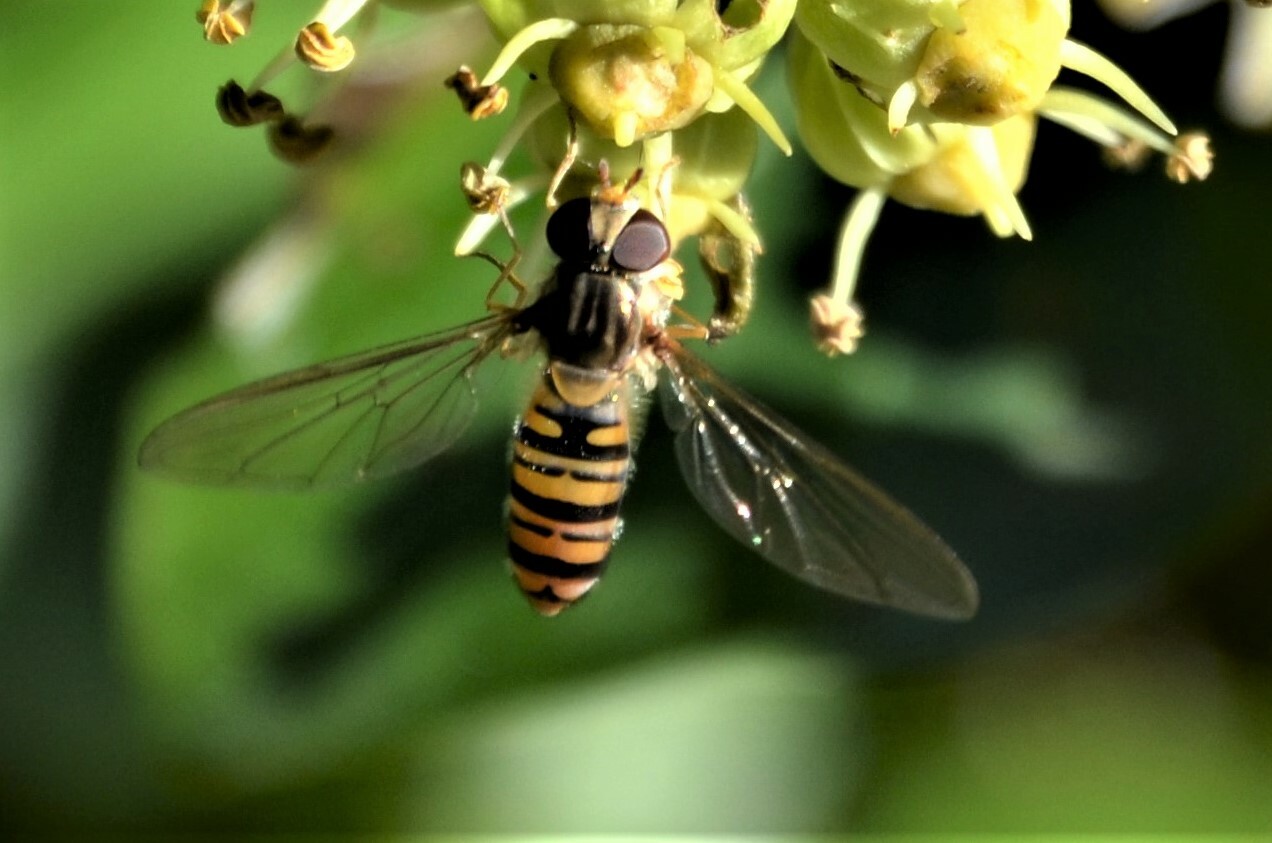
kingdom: Animalia
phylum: Arthropoda
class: Insecta
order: Diptera
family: Syrphidae
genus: Episyrphus
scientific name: Episyrphus balteatus
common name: Marmalade hoverfly
